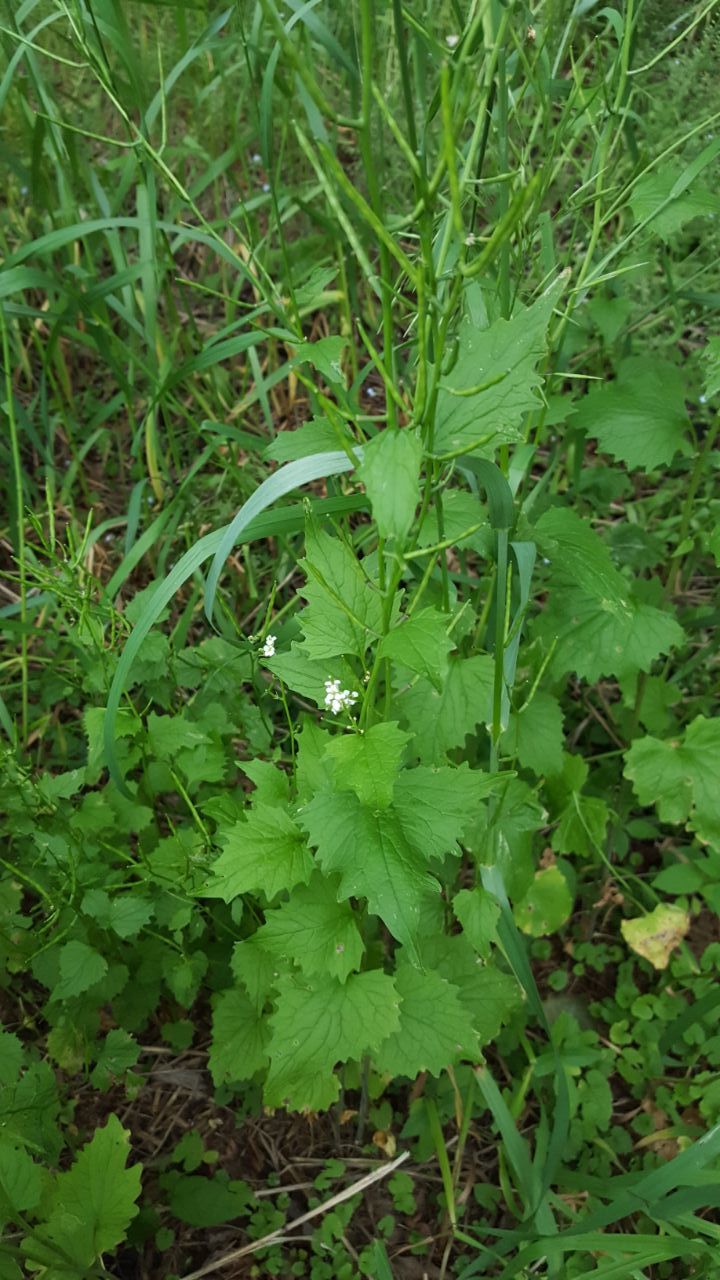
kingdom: Plantae
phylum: Tracheophyta
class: Magnoliopsida
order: Brassicales
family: Brassicaceae
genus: Alliaria
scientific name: Alliaria petiolata
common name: Garlic mustard
